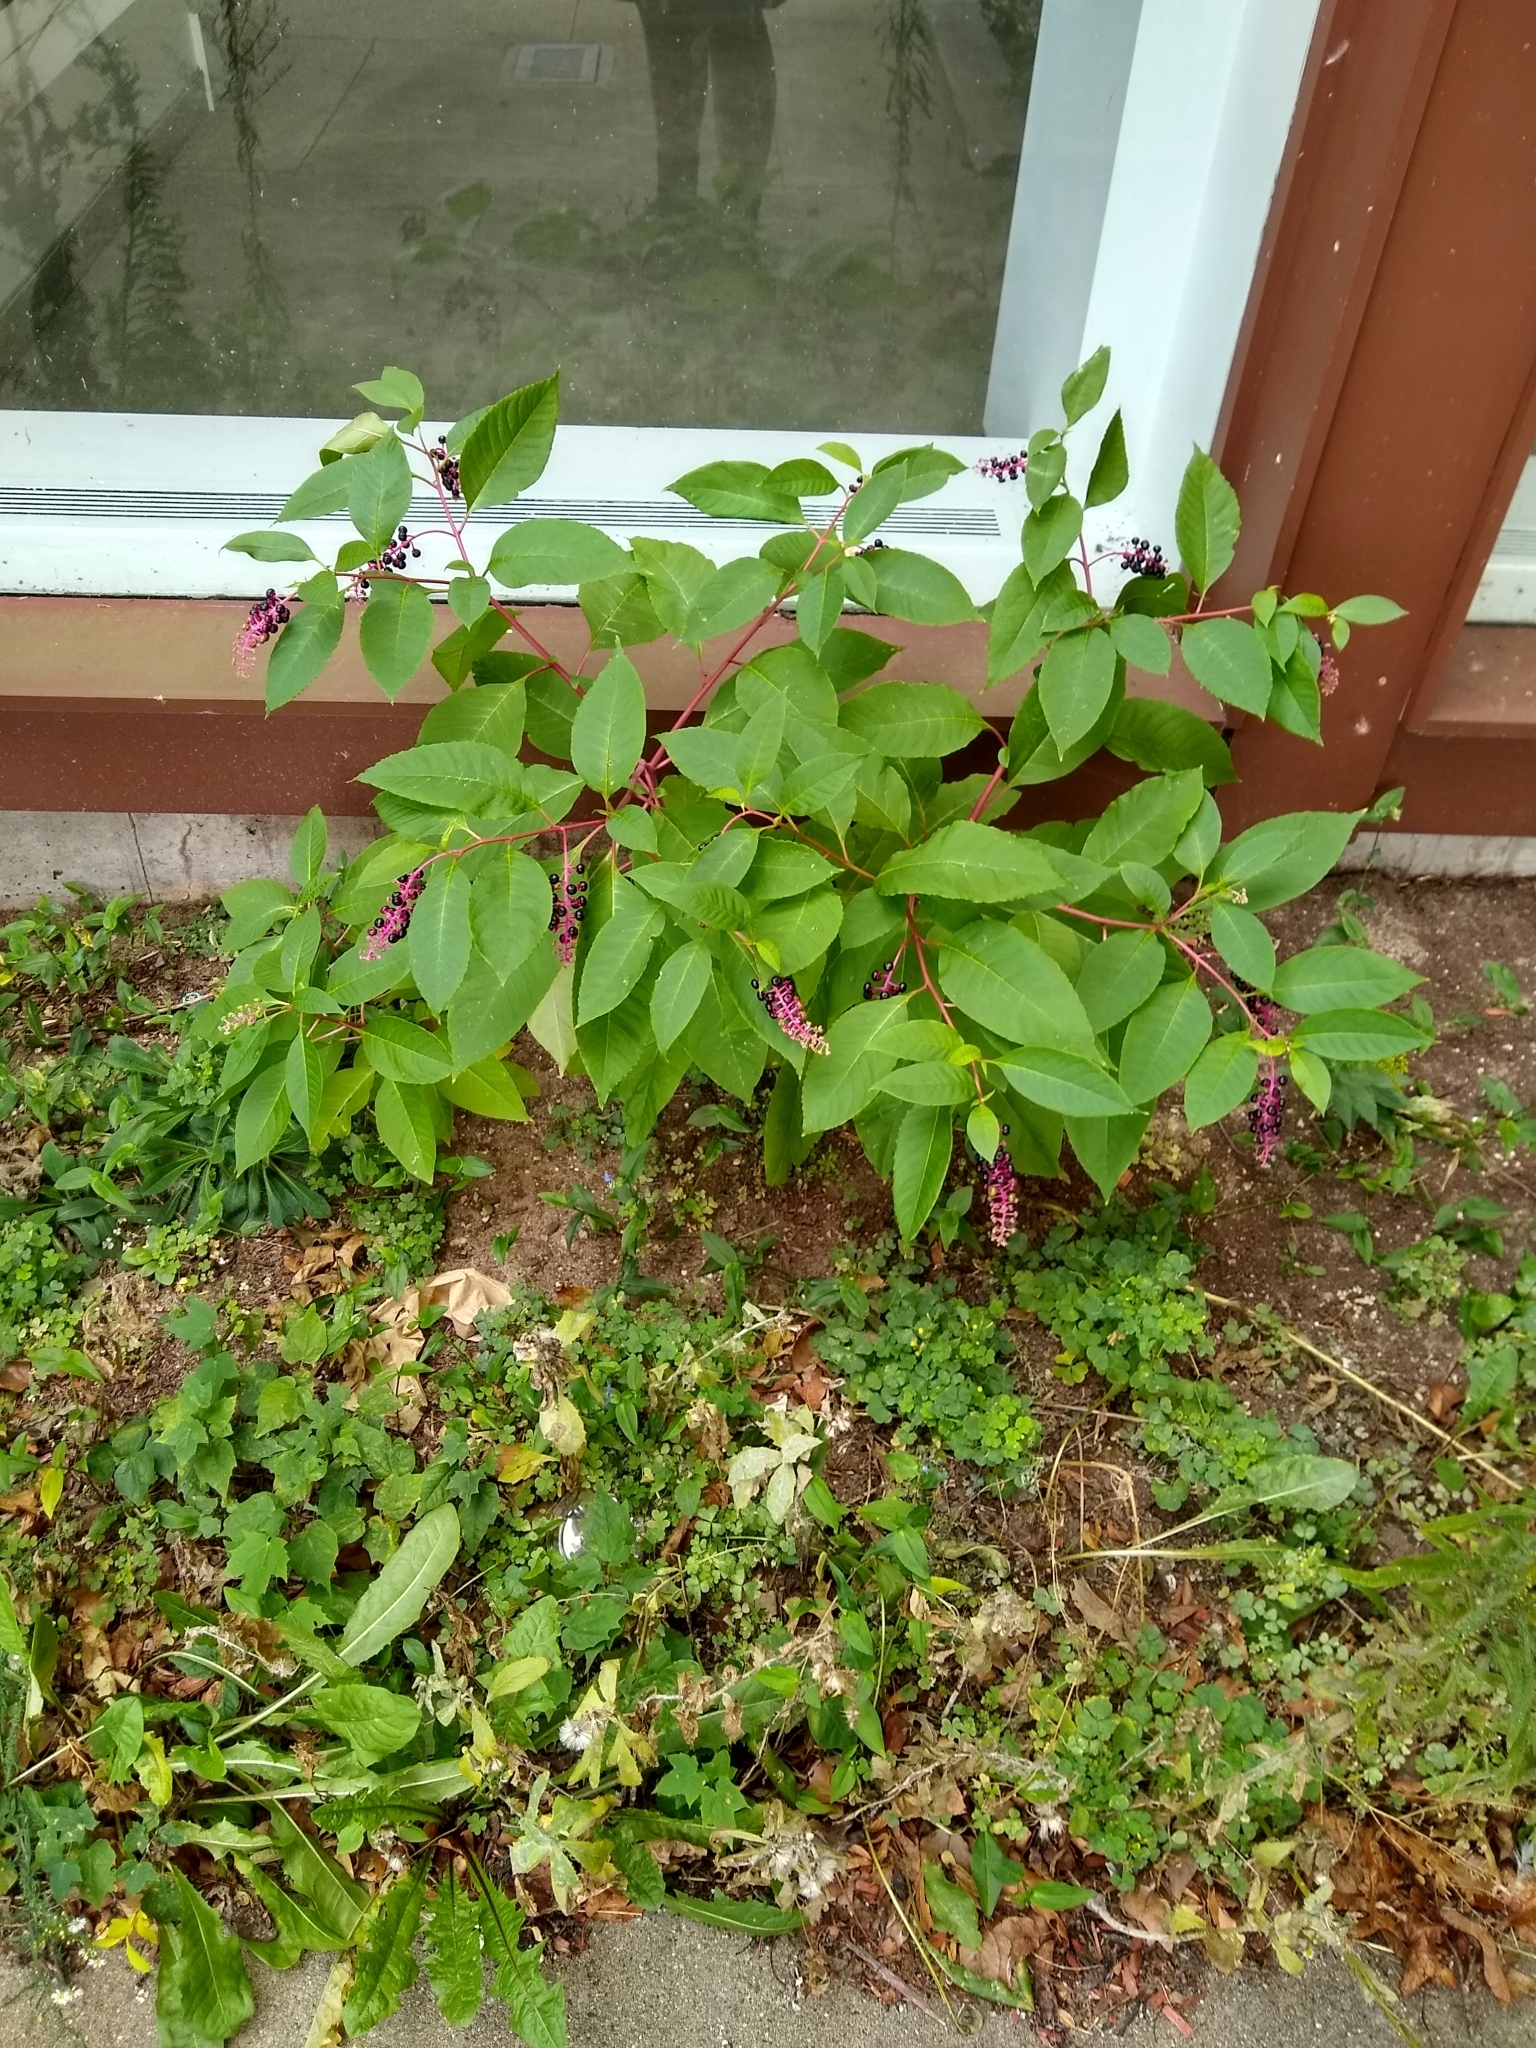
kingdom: Plantae
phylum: Tracheophyta
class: Magnoliopsida
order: Caryophyllales
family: Phytolaccaceae
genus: Phytolacca
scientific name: Phytolacca americana
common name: American pokeweed
